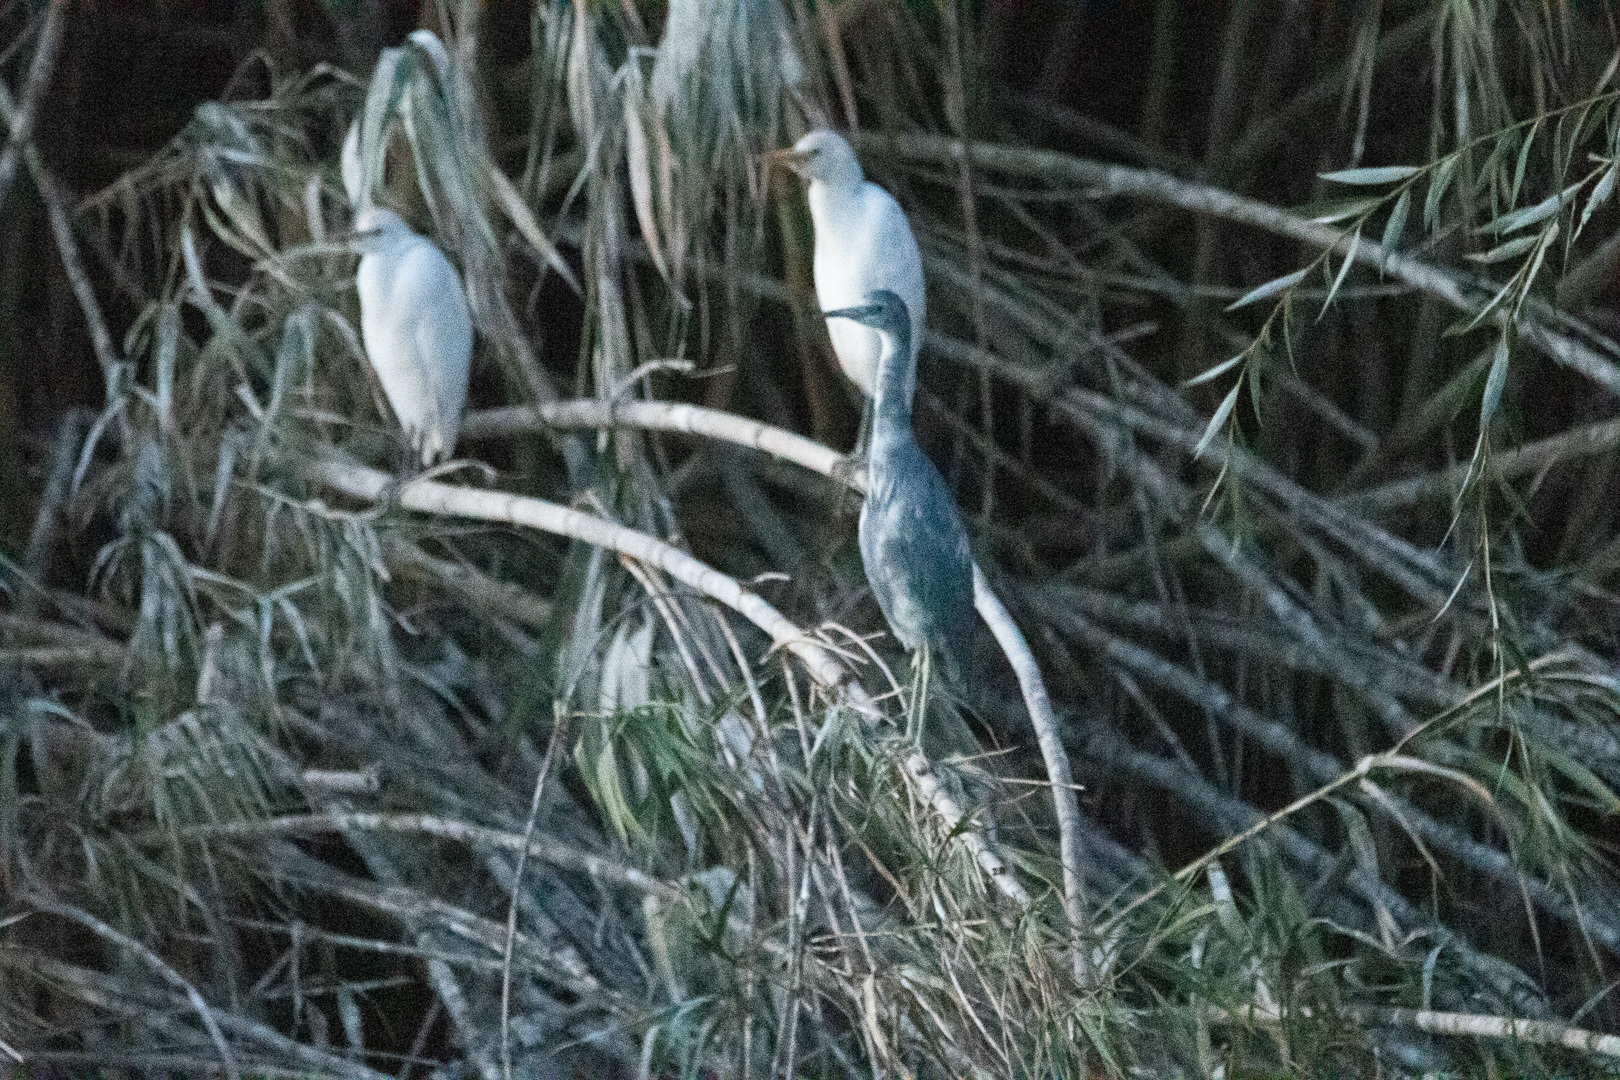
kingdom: Animalia
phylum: Chordata
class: Aves
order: Pelecaniformes
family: Ardeidae
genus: Egretta
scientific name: Egretta caerulea
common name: Little blue heron
